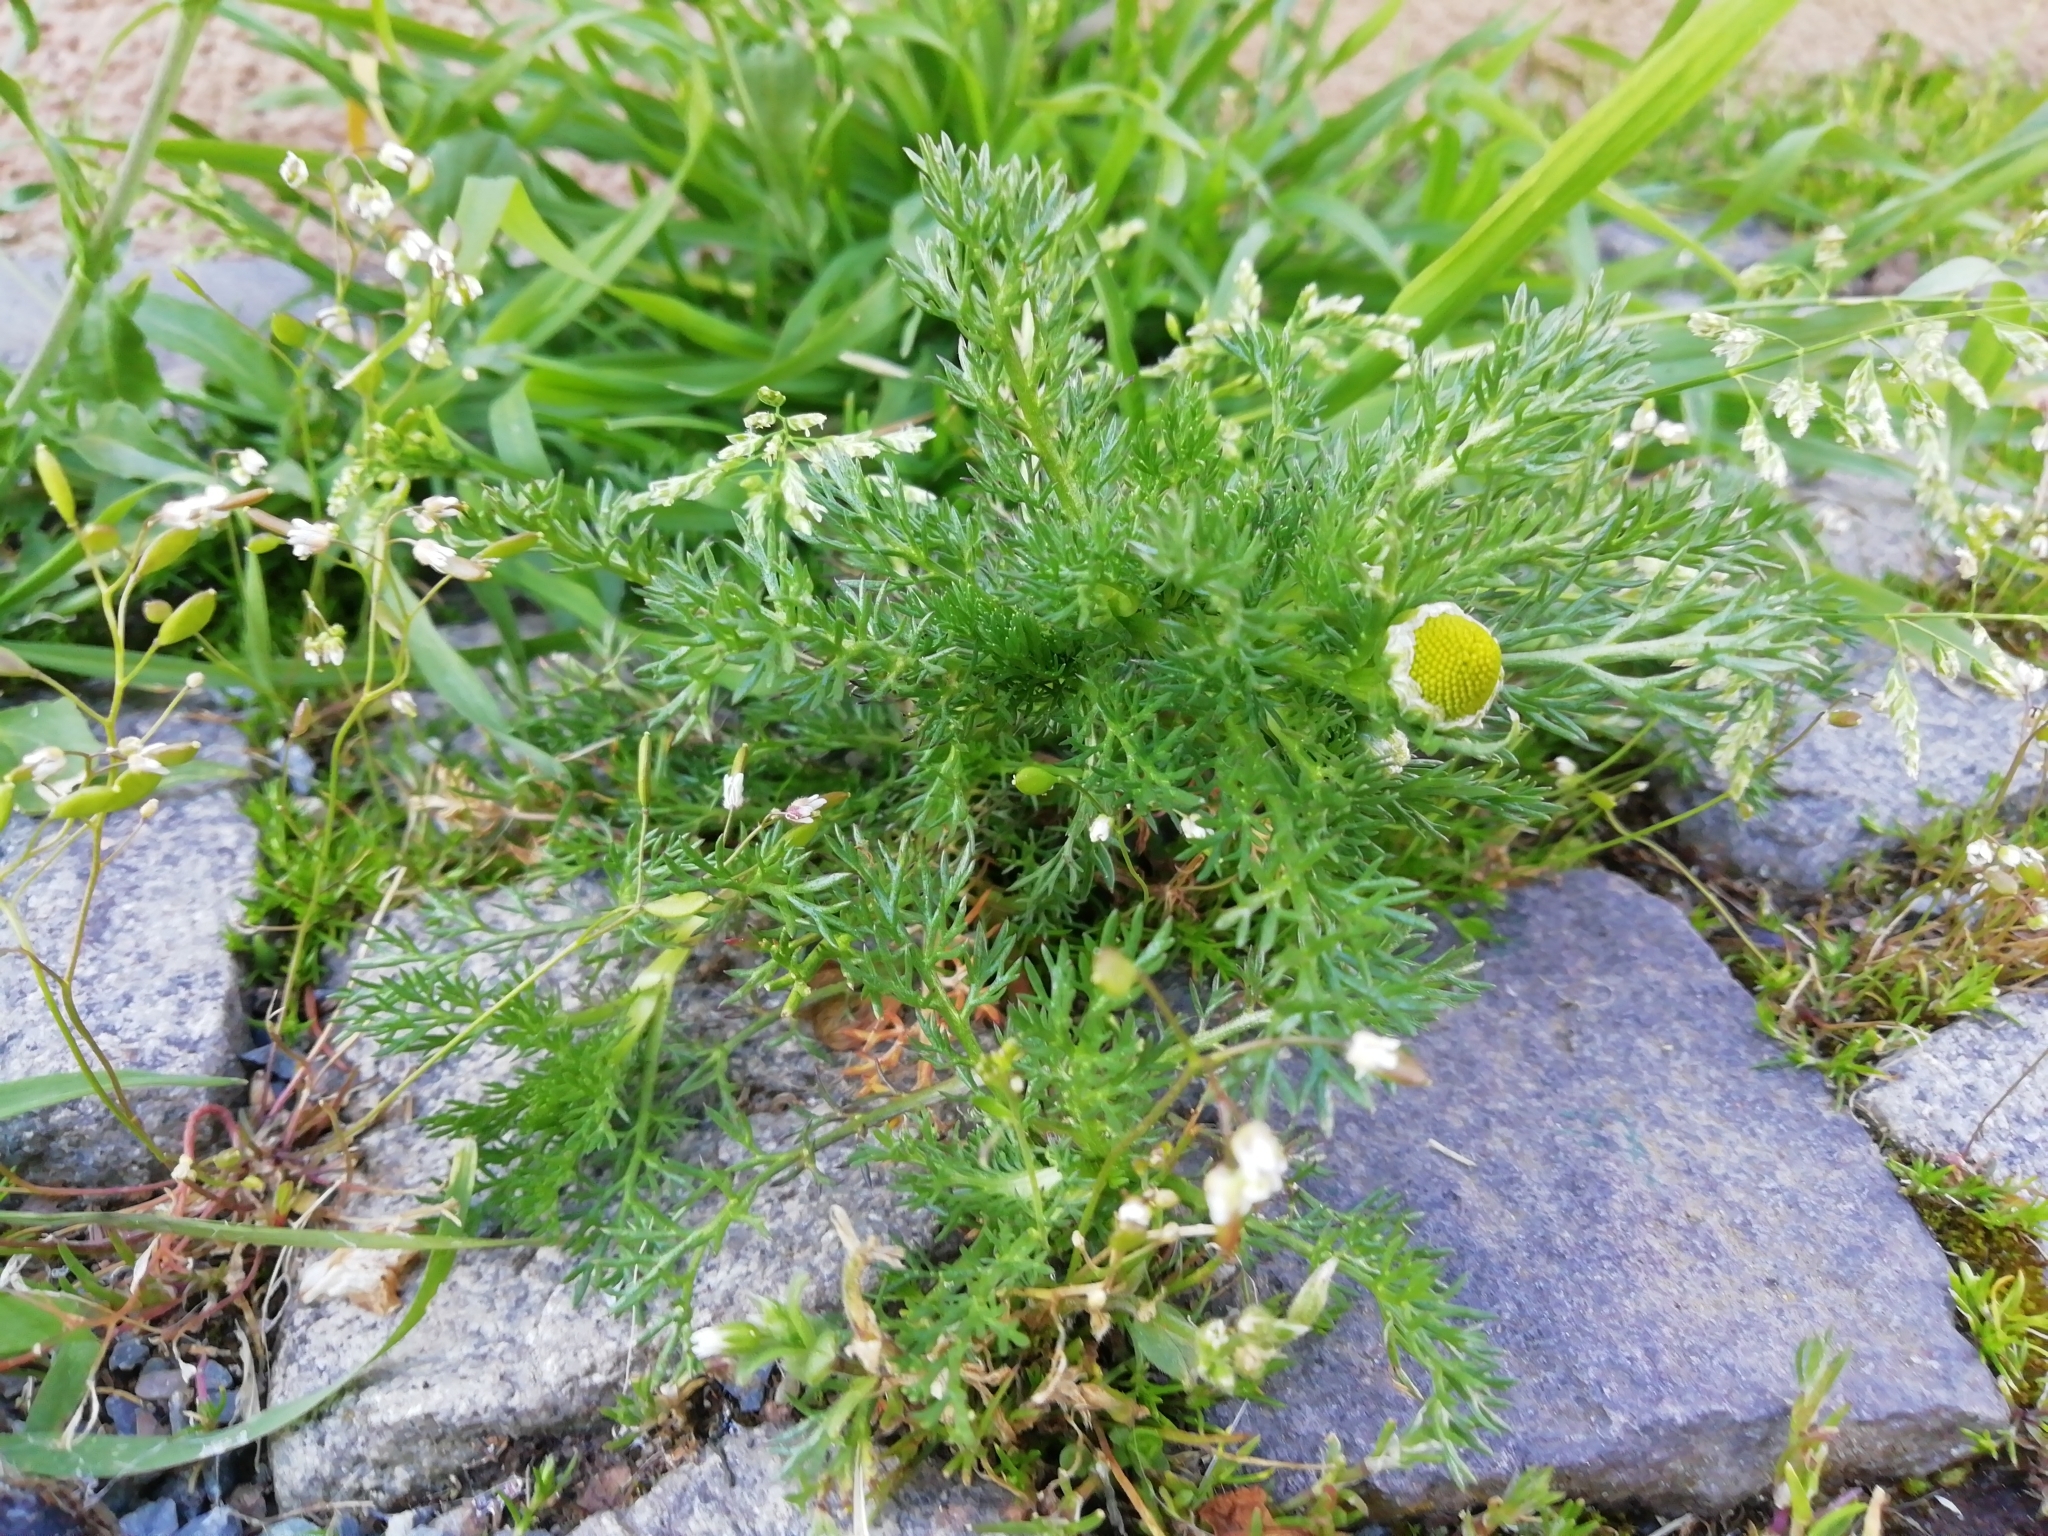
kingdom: Plantae
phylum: Tracheophyta
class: Magnoliopsida
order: Asterales
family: Asteraceae
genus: Matricaria
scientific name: Matricaria discoidea
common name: Disc mayweed
